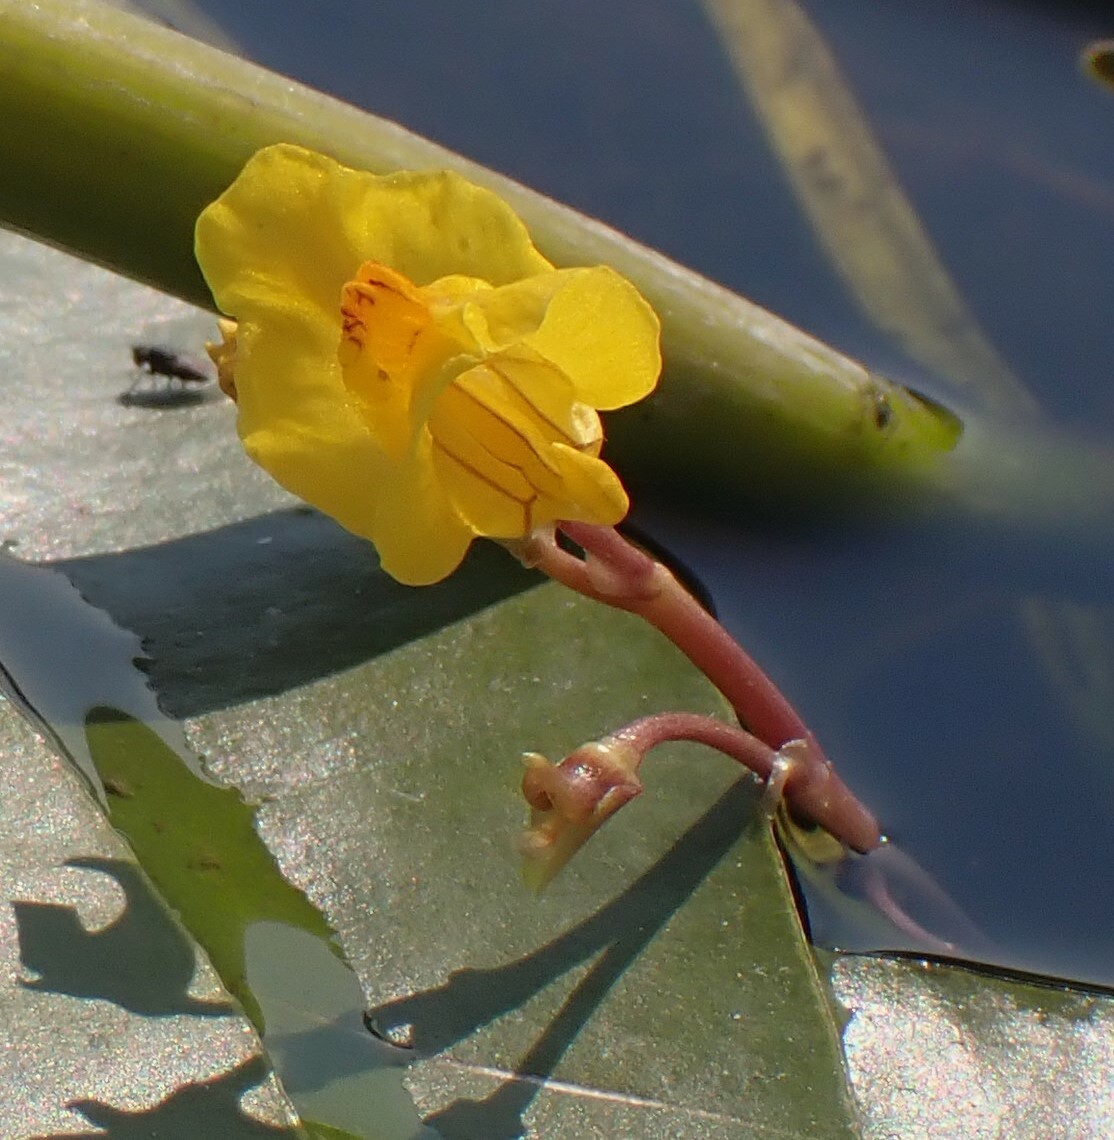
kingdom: Plantae
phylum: Tracheophyta
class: Magnoliopsida
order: Lamiales
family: Lentibulariaceae
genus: Utricularia
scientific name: Utricularia macrorhiza
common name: Common bladderwort
